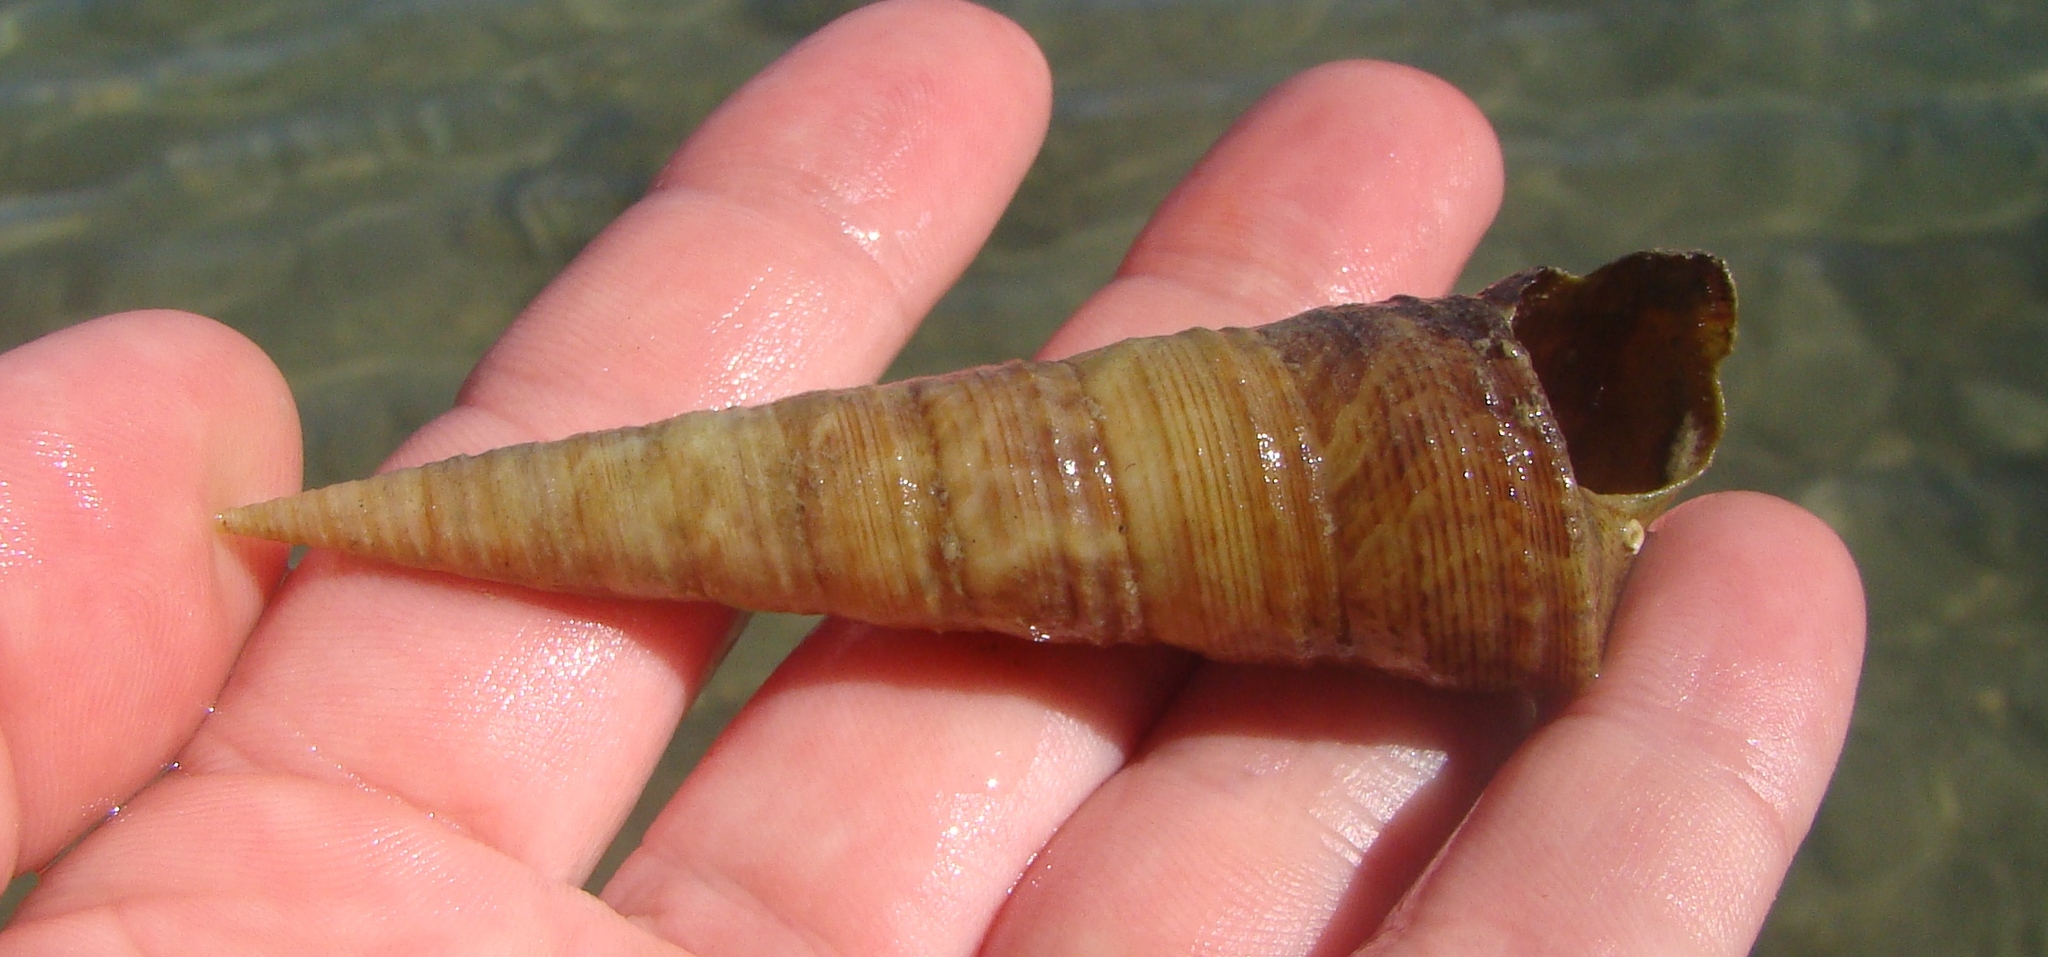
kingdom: Animalia
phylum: Mollusca
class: Gastropoda
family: Turritellidae
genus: Maoricolpus
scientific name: Maoricolpus roseus
